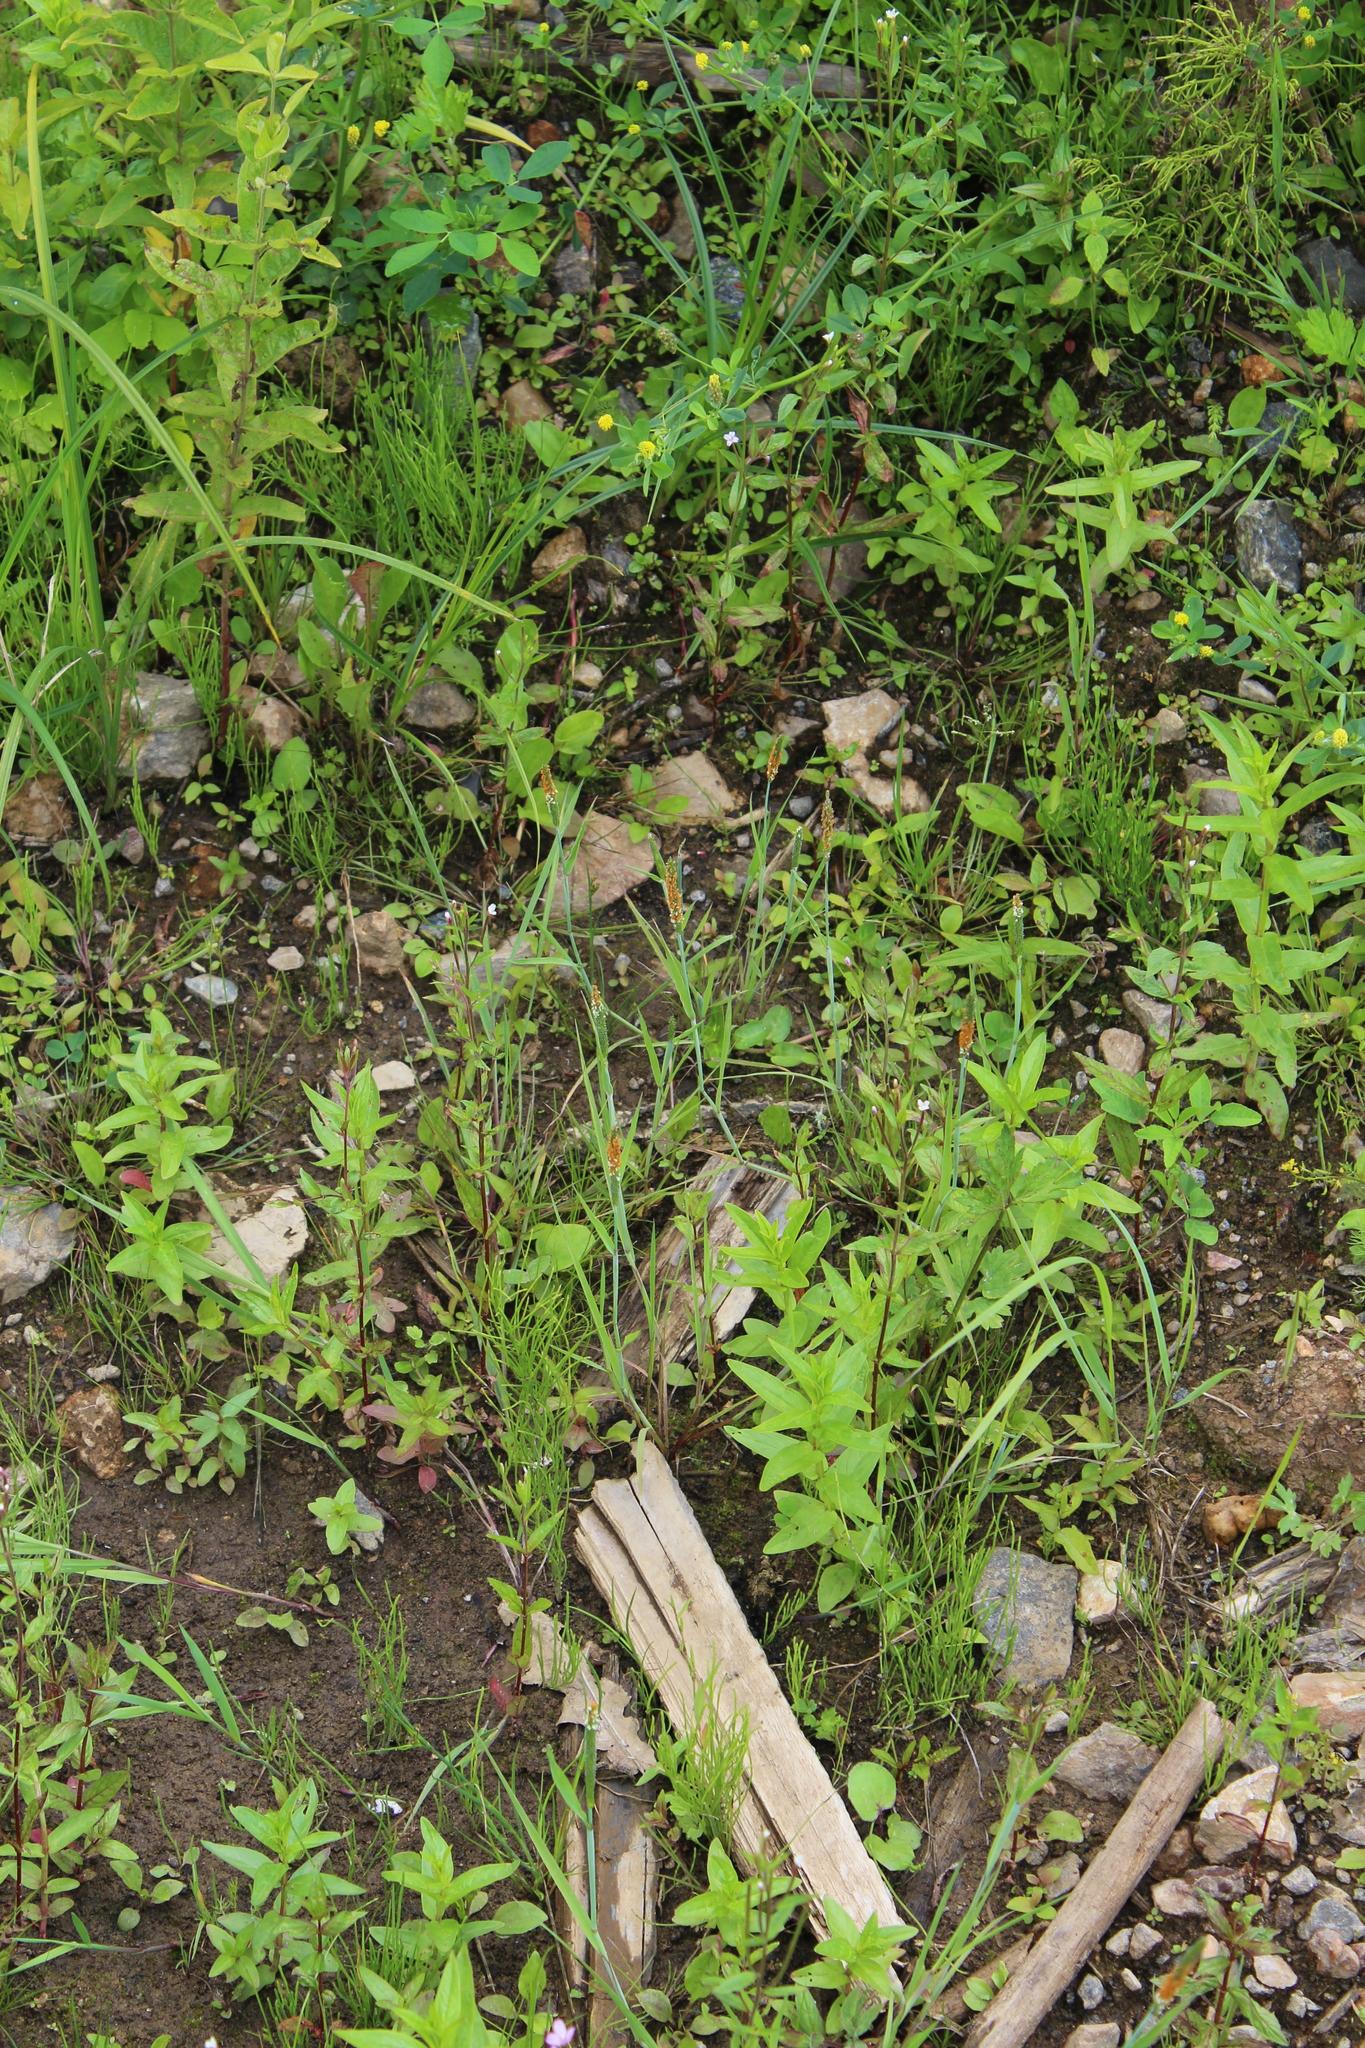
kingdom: Plantae
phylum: Tracheophyta
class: Liliopsida
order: Poales
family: Poaceae
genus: Alopecurus
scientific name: Alopecurus aequalis
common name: Orange foxtail
